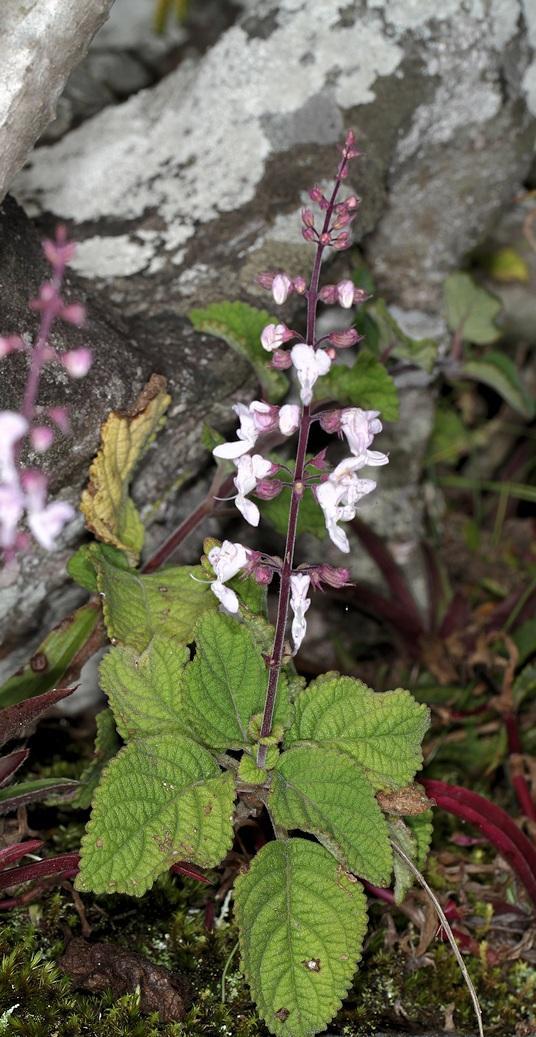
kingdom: Plantae
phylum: Tracheophyta
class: Magnoliopsida
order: Lamiales
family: Lamiaceae
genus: Plectranthus
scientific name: Plectranthus fruticosus
